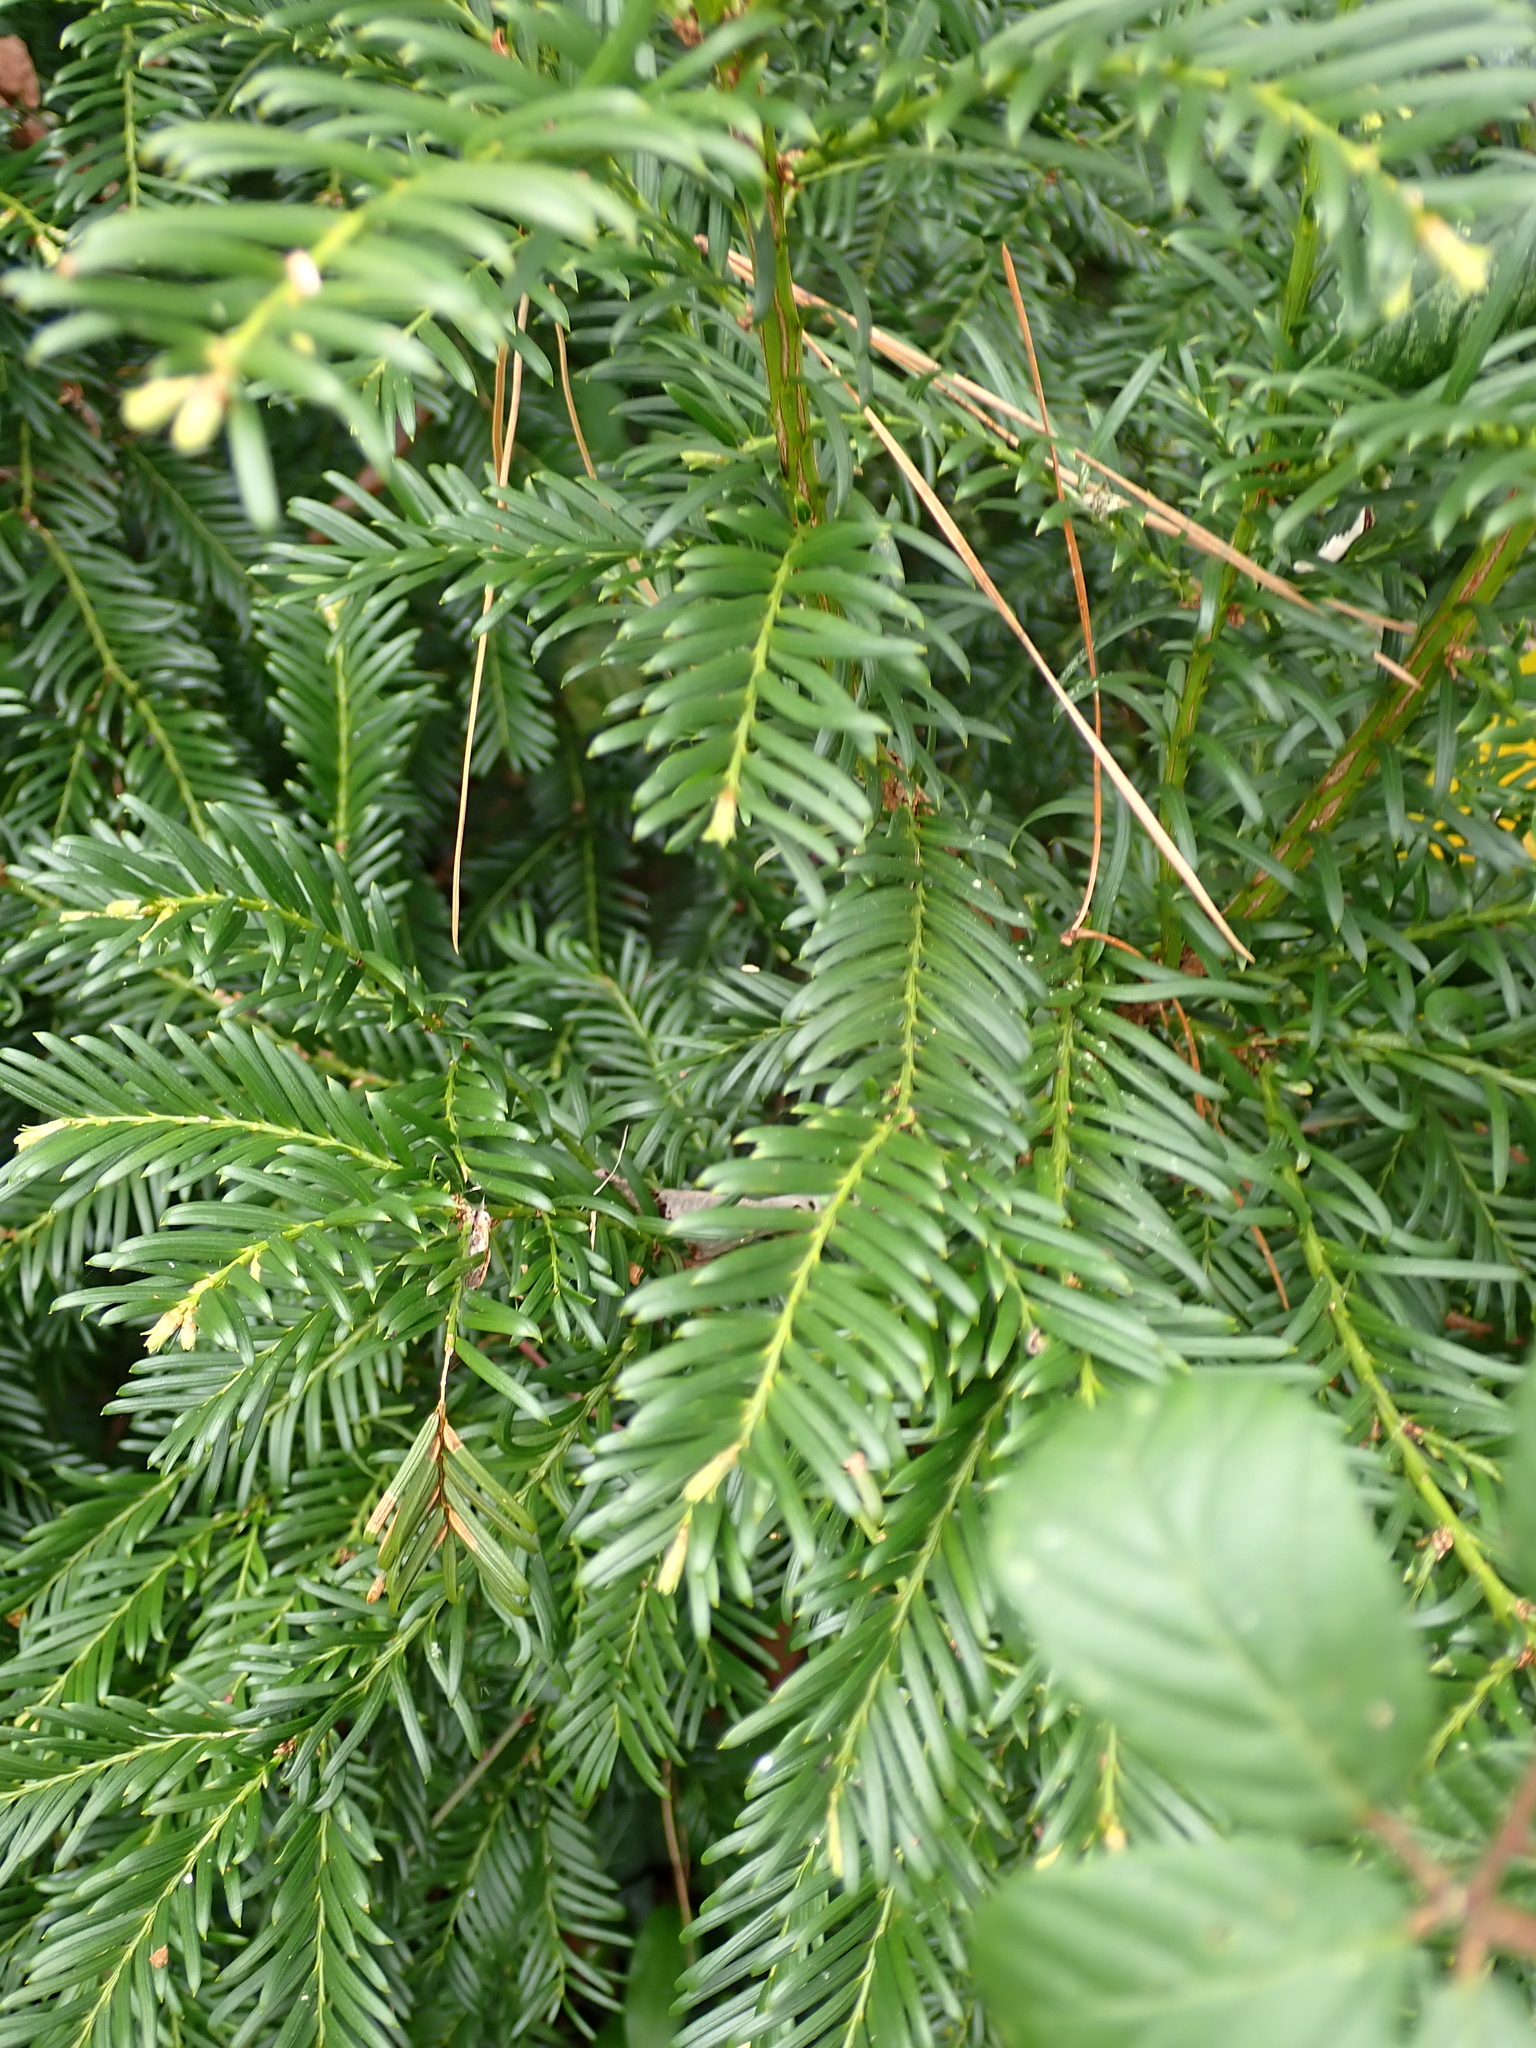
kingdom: Plantae
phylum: Tracheophyta
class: Pinopsida
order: Pinales
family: Taxaceae
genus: Taxus
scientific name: Taxus baccata
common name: Yew
